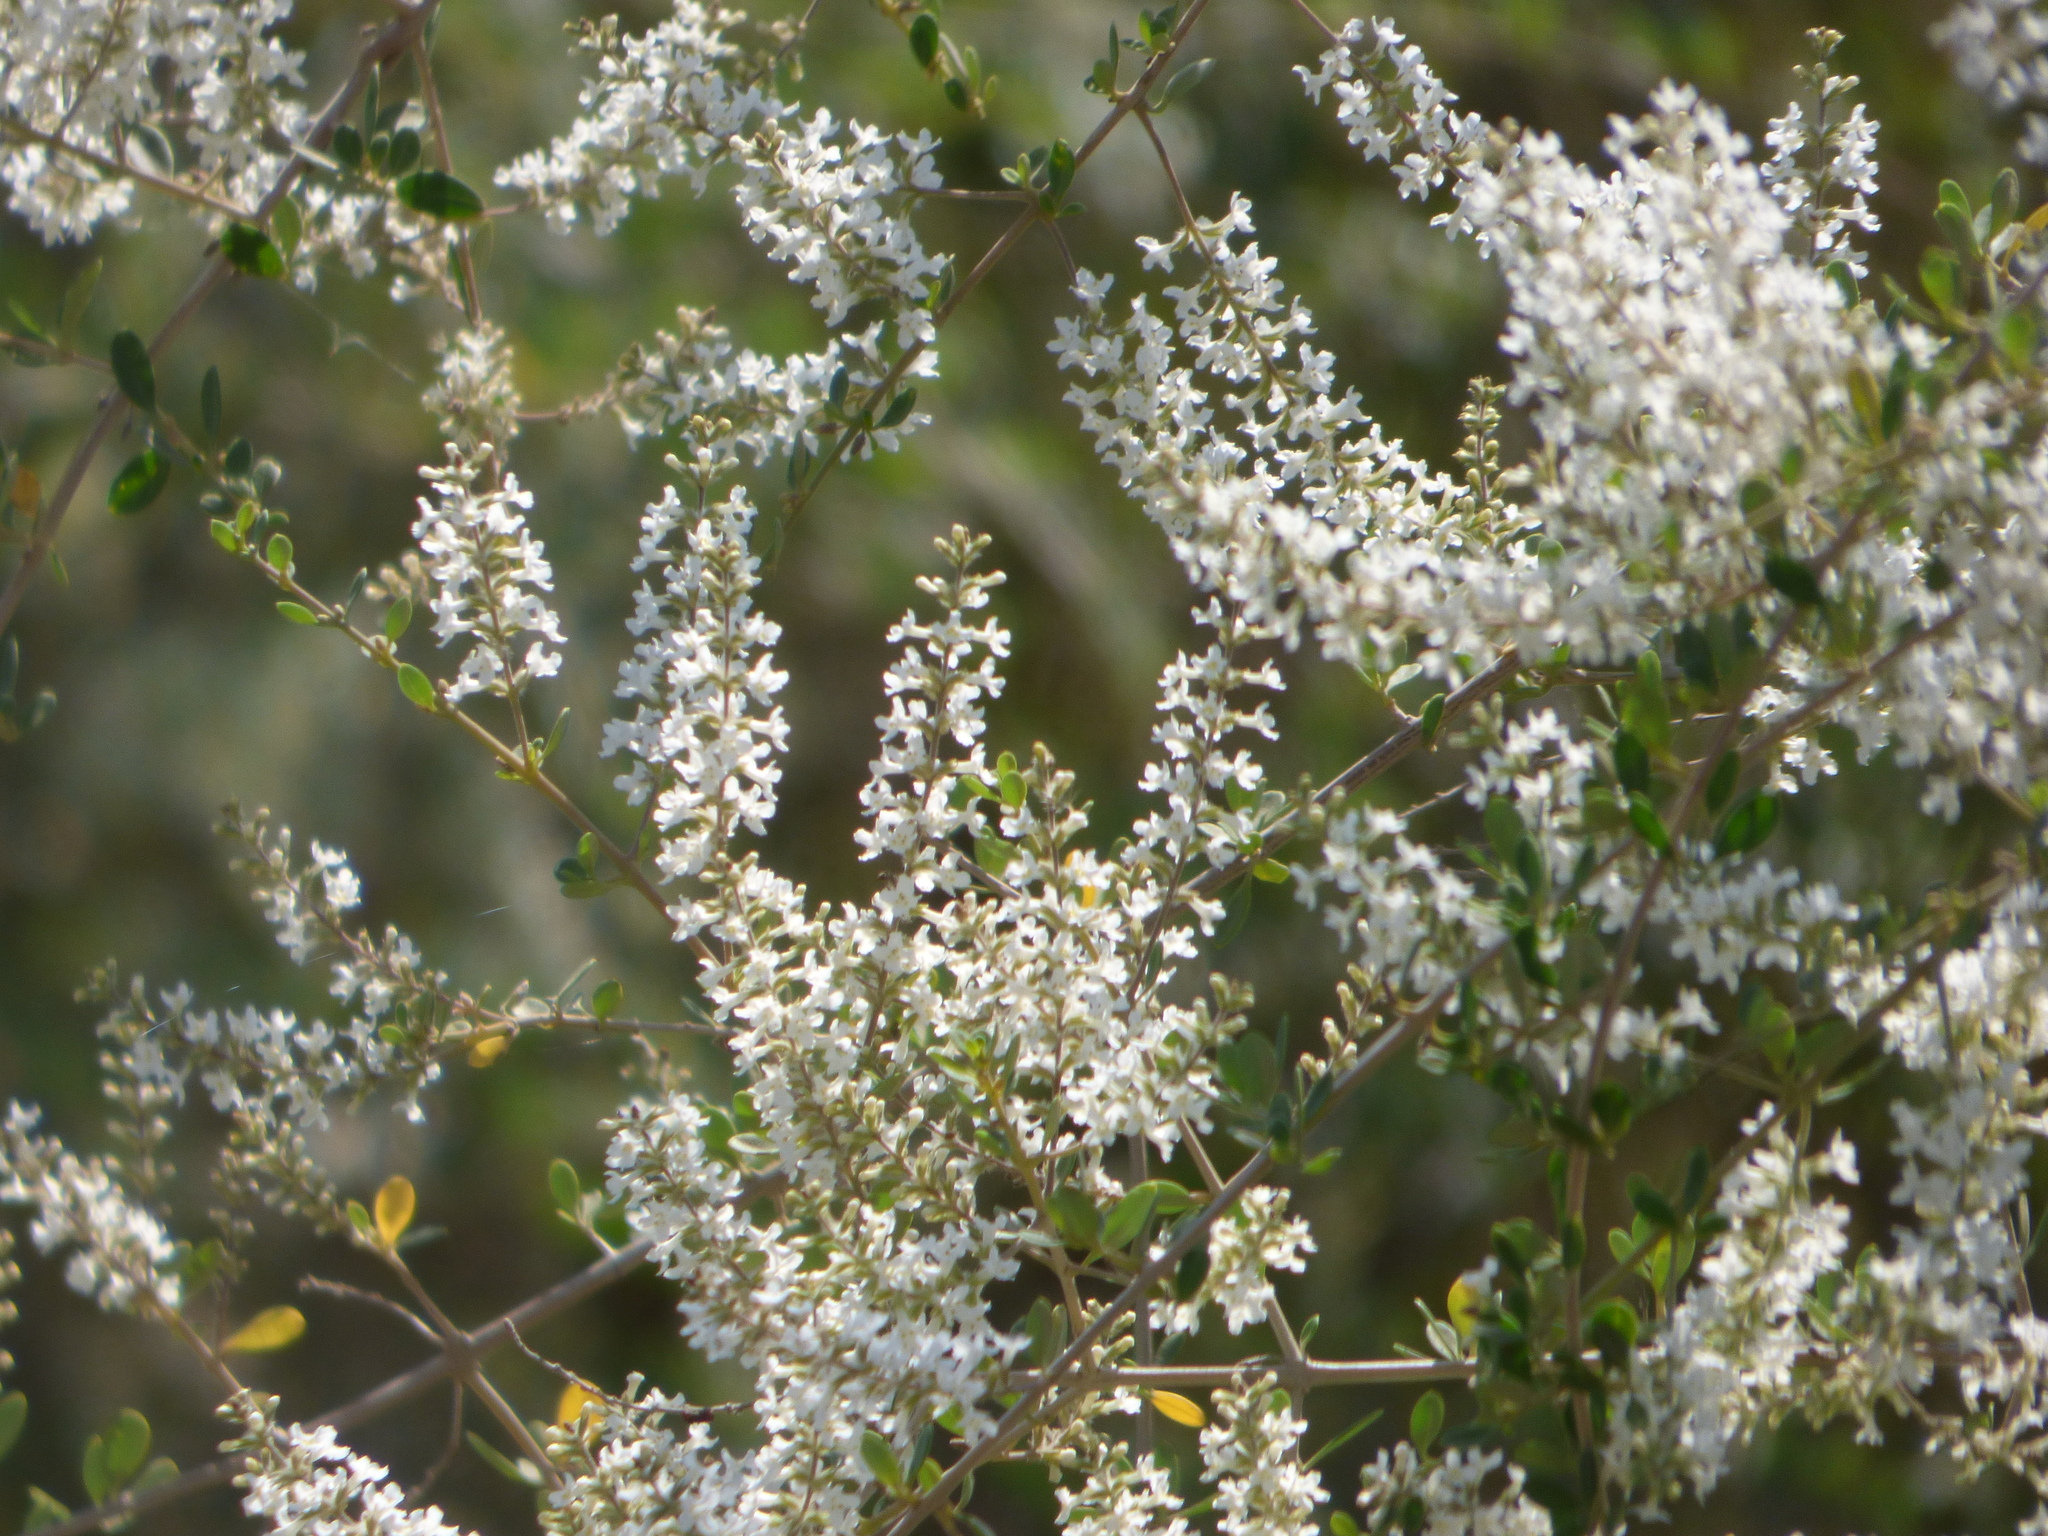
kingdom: Plantae
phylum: Tracheophyta
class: Magnoliopsida
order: Lamiales
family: Verbenaceae
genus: Aloysia
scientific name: Aloysia gratissima
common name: Common bee-brush
